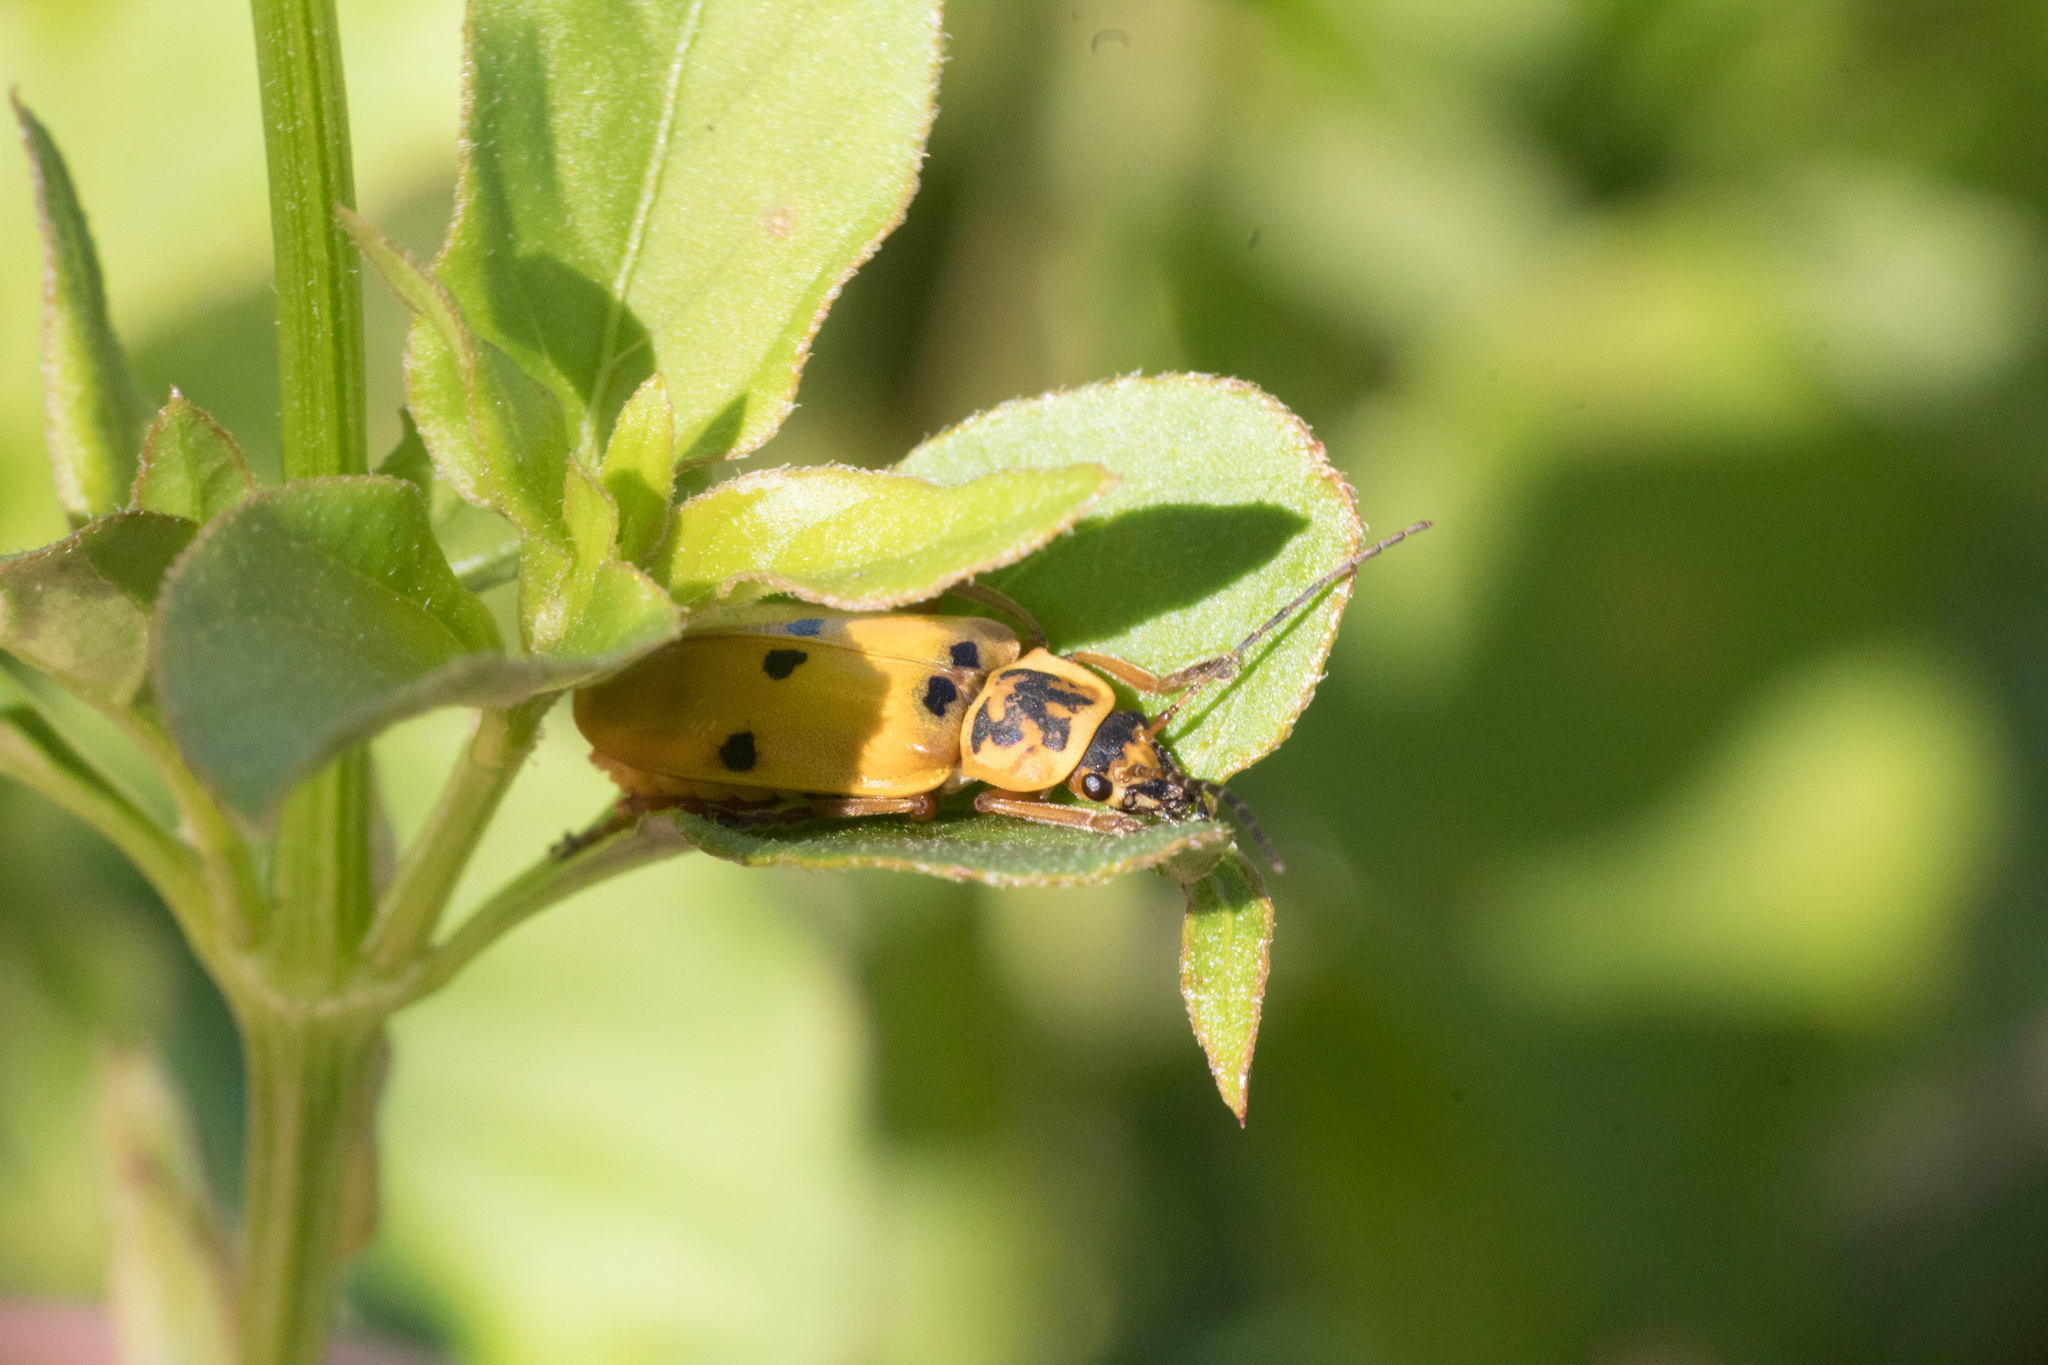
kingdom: Animalia
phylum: Arthropoda
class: Insecta
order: Coleoptera
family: Cantharidae
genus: Chauliognathus
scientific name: Chauliognathus
